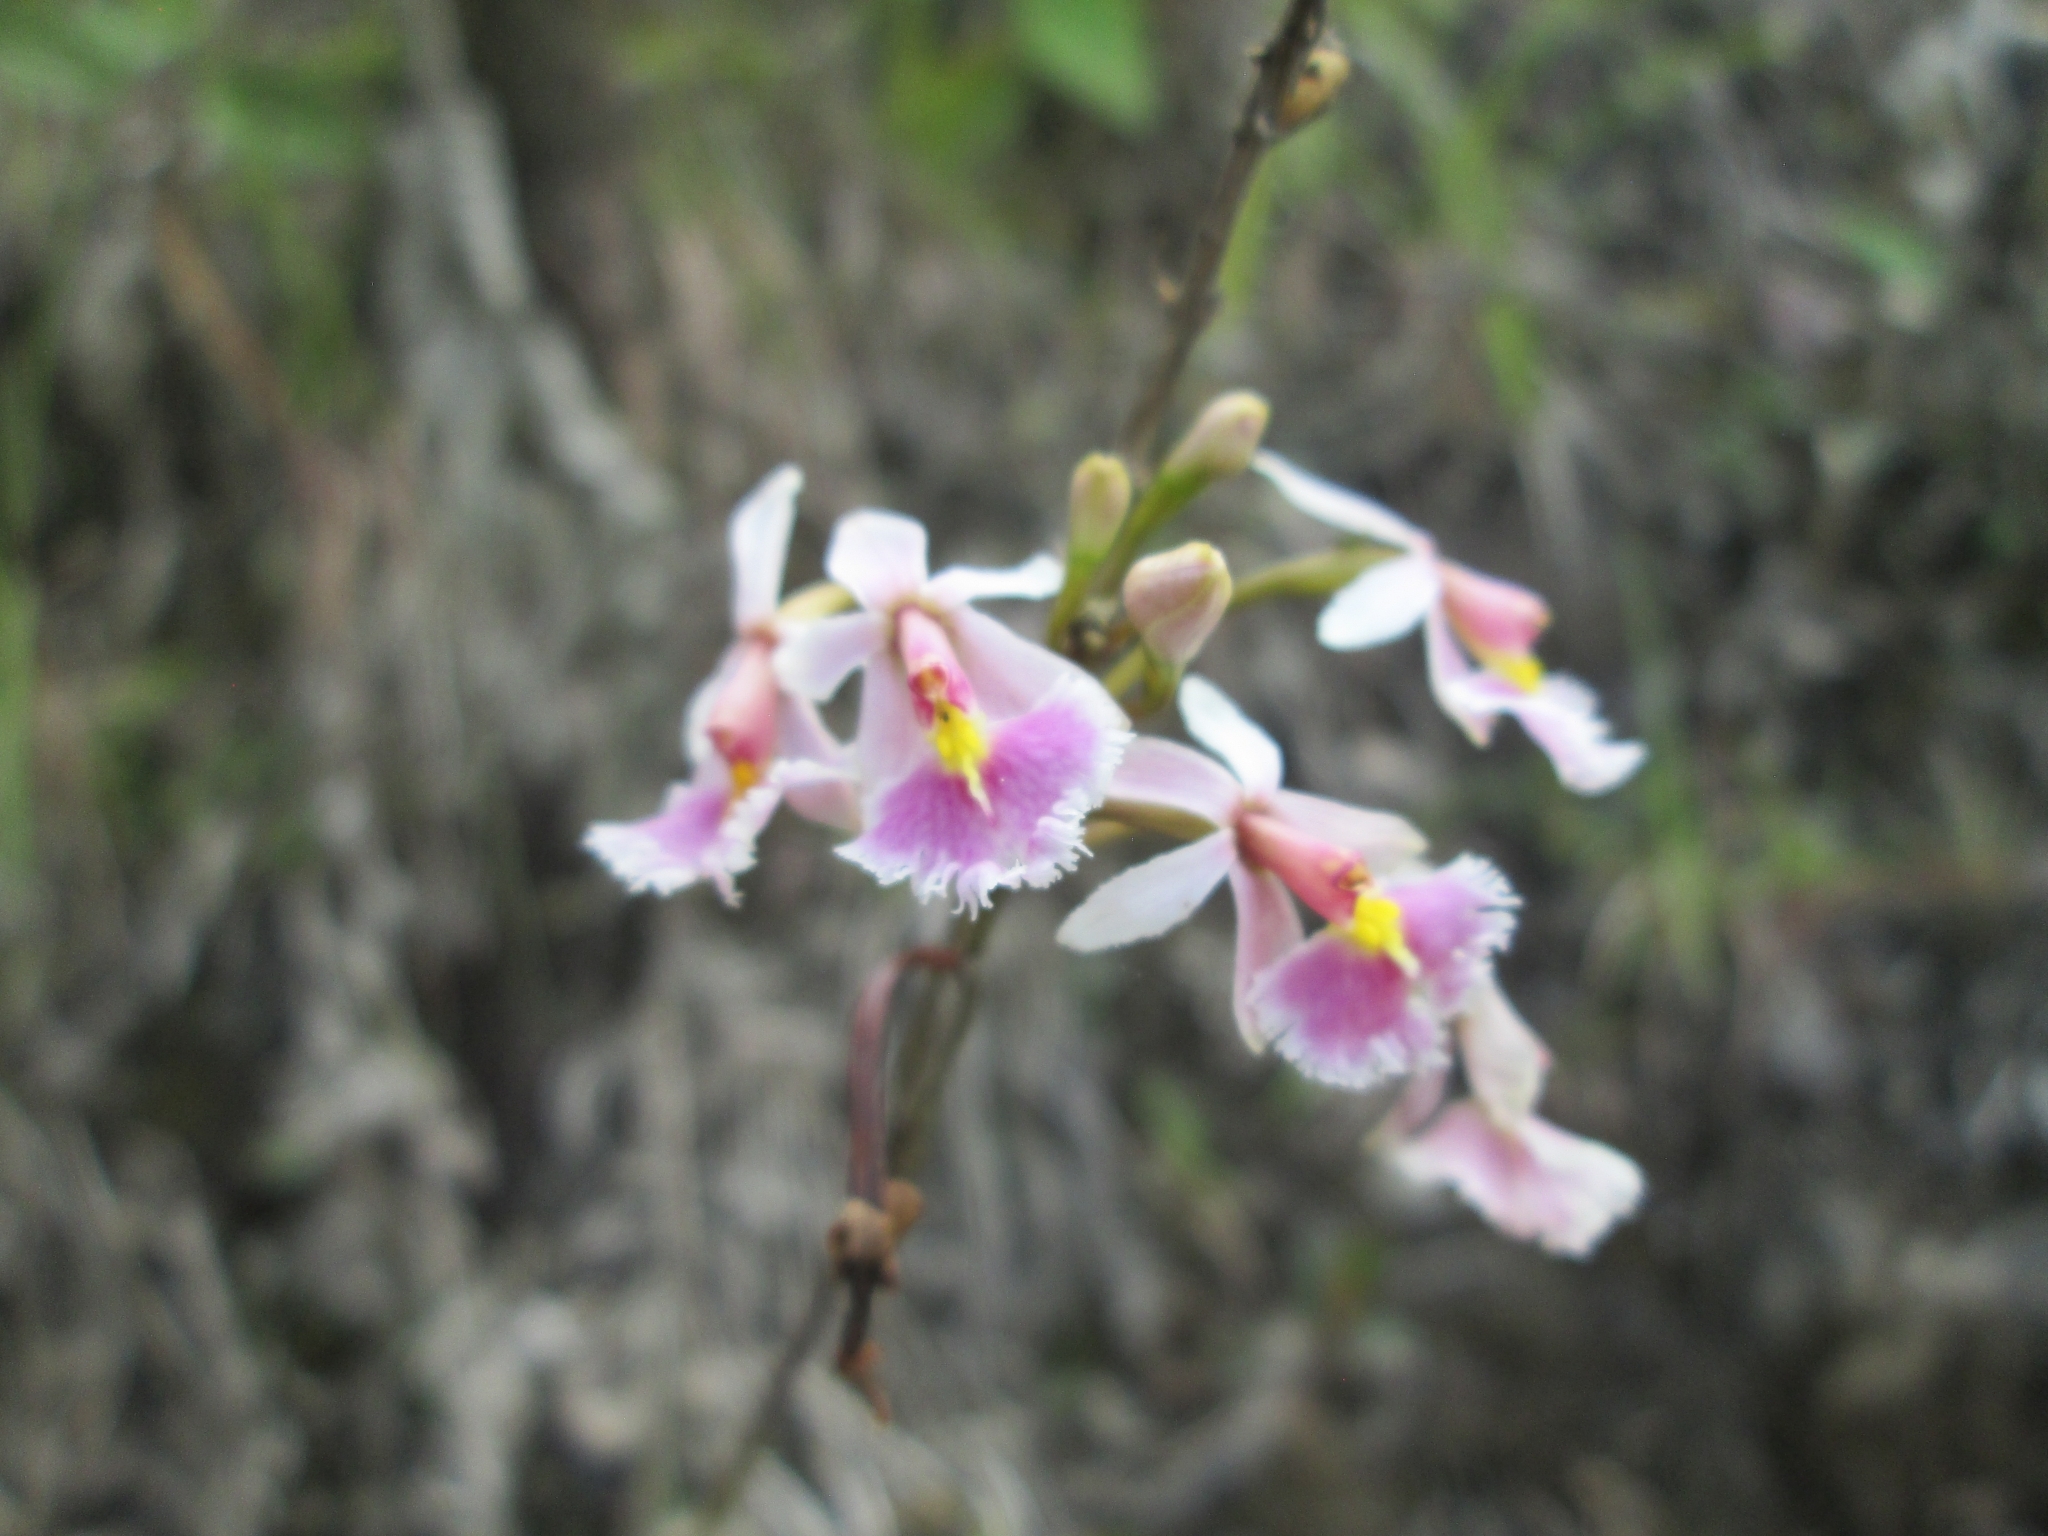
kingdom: Plantae
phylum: Tracheophyta
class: Liliopsida
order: Asparagales
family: Orchidaceae
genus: Epidendrum
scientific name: Epidendrum calanthum
